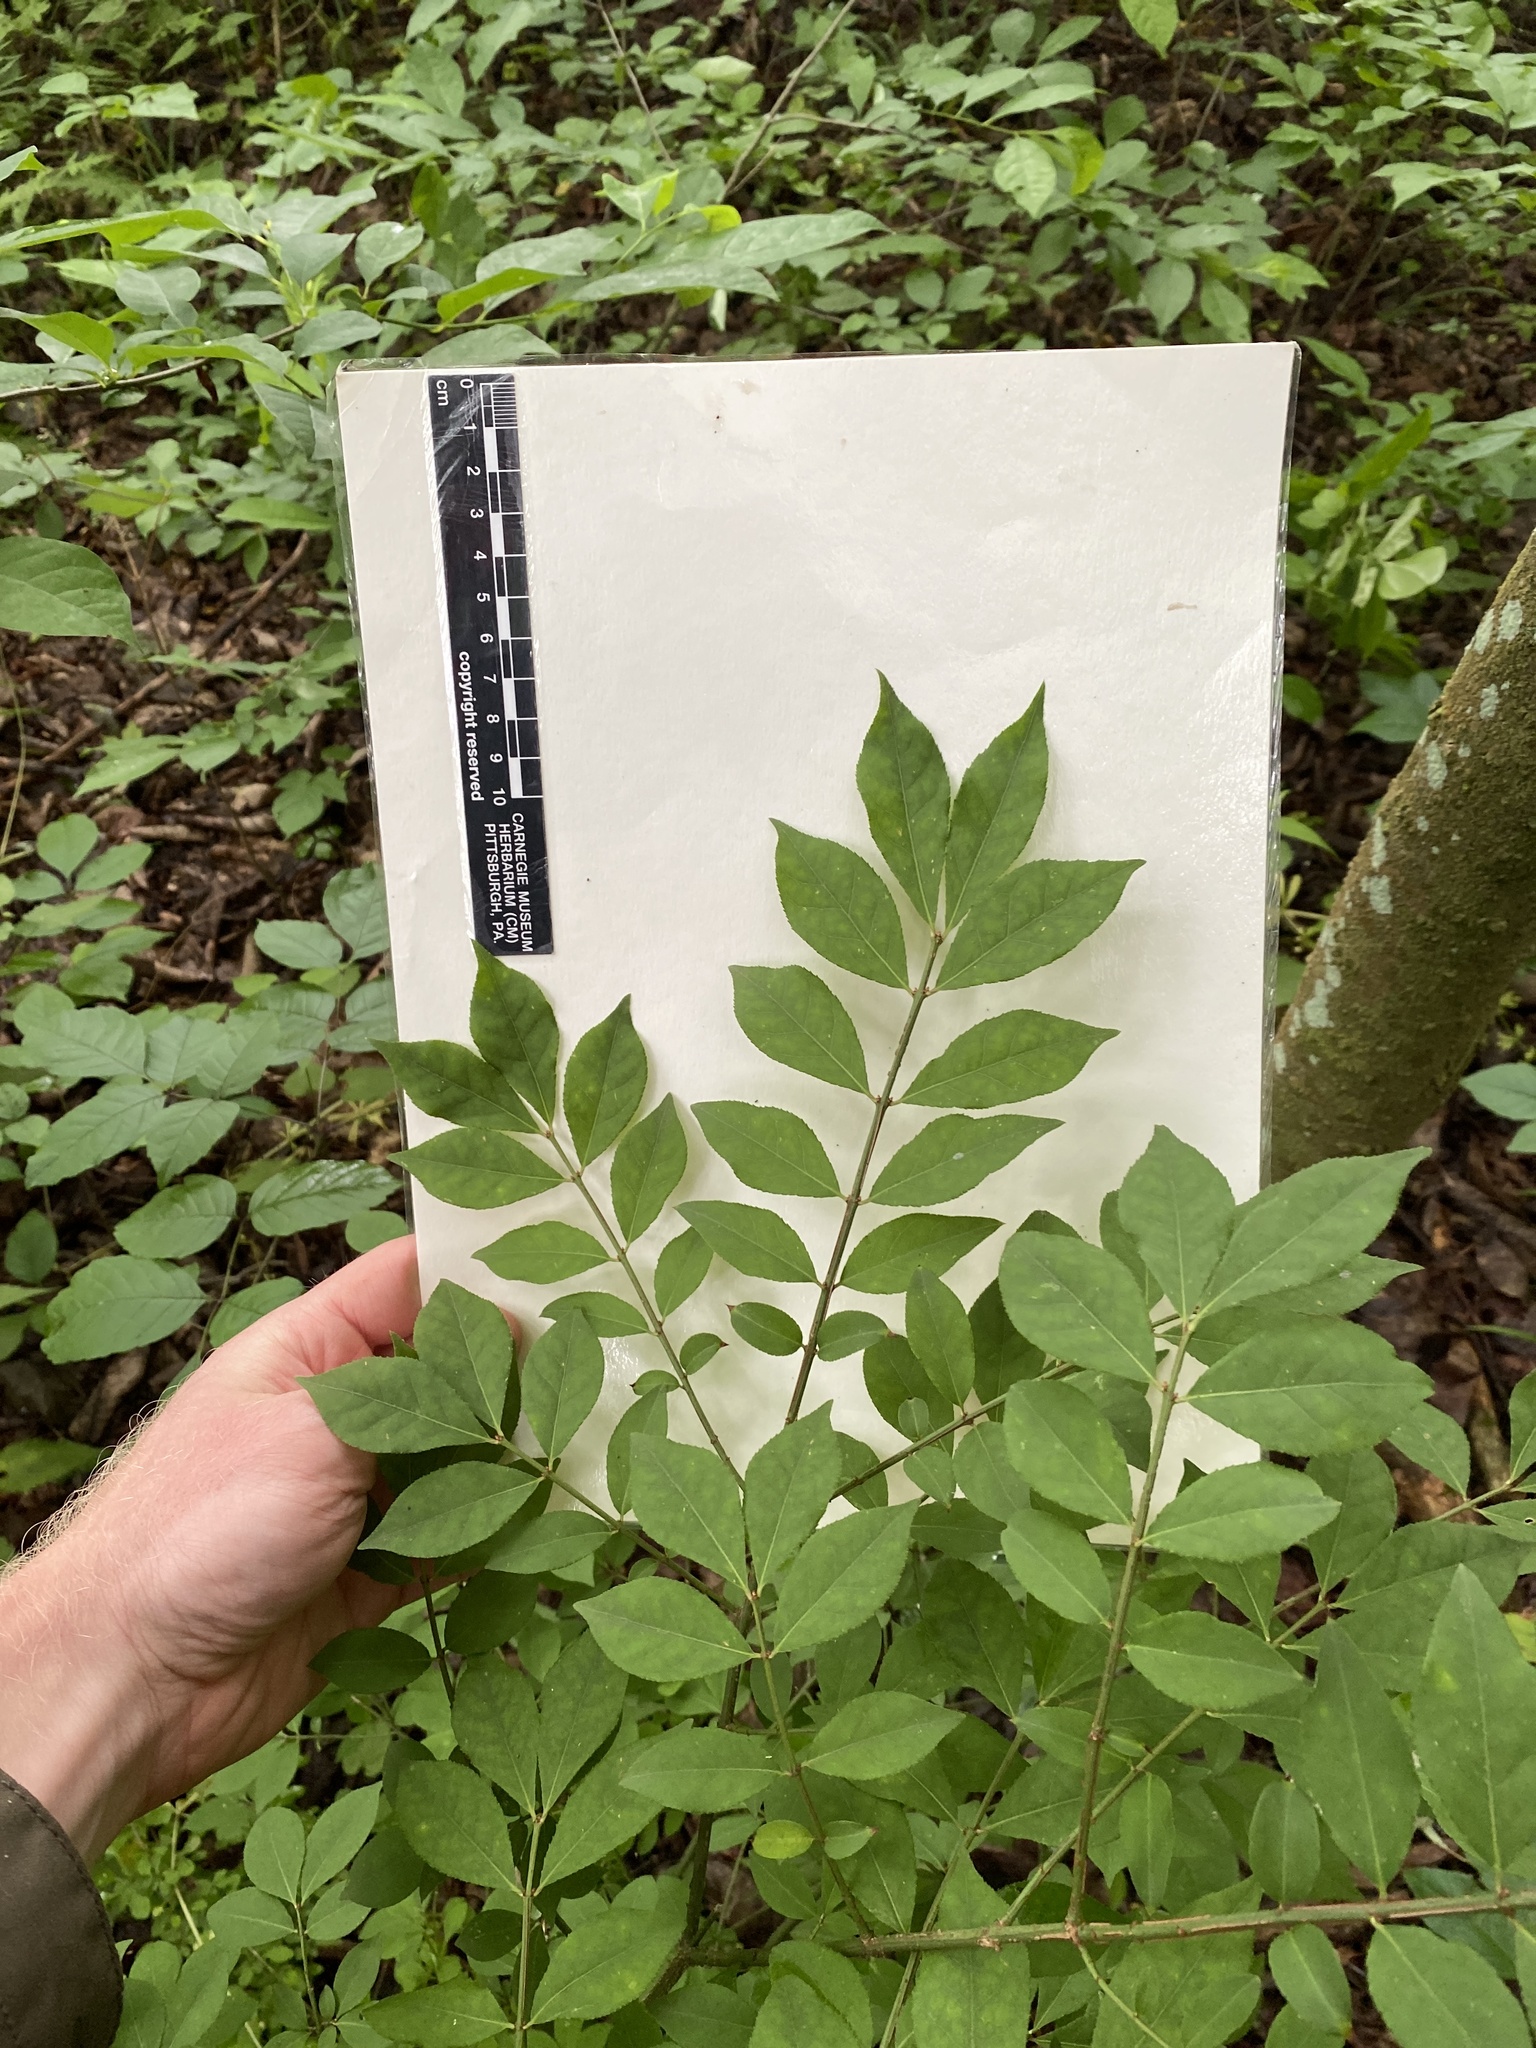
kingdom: Plantae
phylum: Tracheophyta
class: Magnoliopsida
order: Celastrales
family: Celastraceae
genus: Euonymus
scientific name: Euonymus alatus
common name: Winged euonymus
